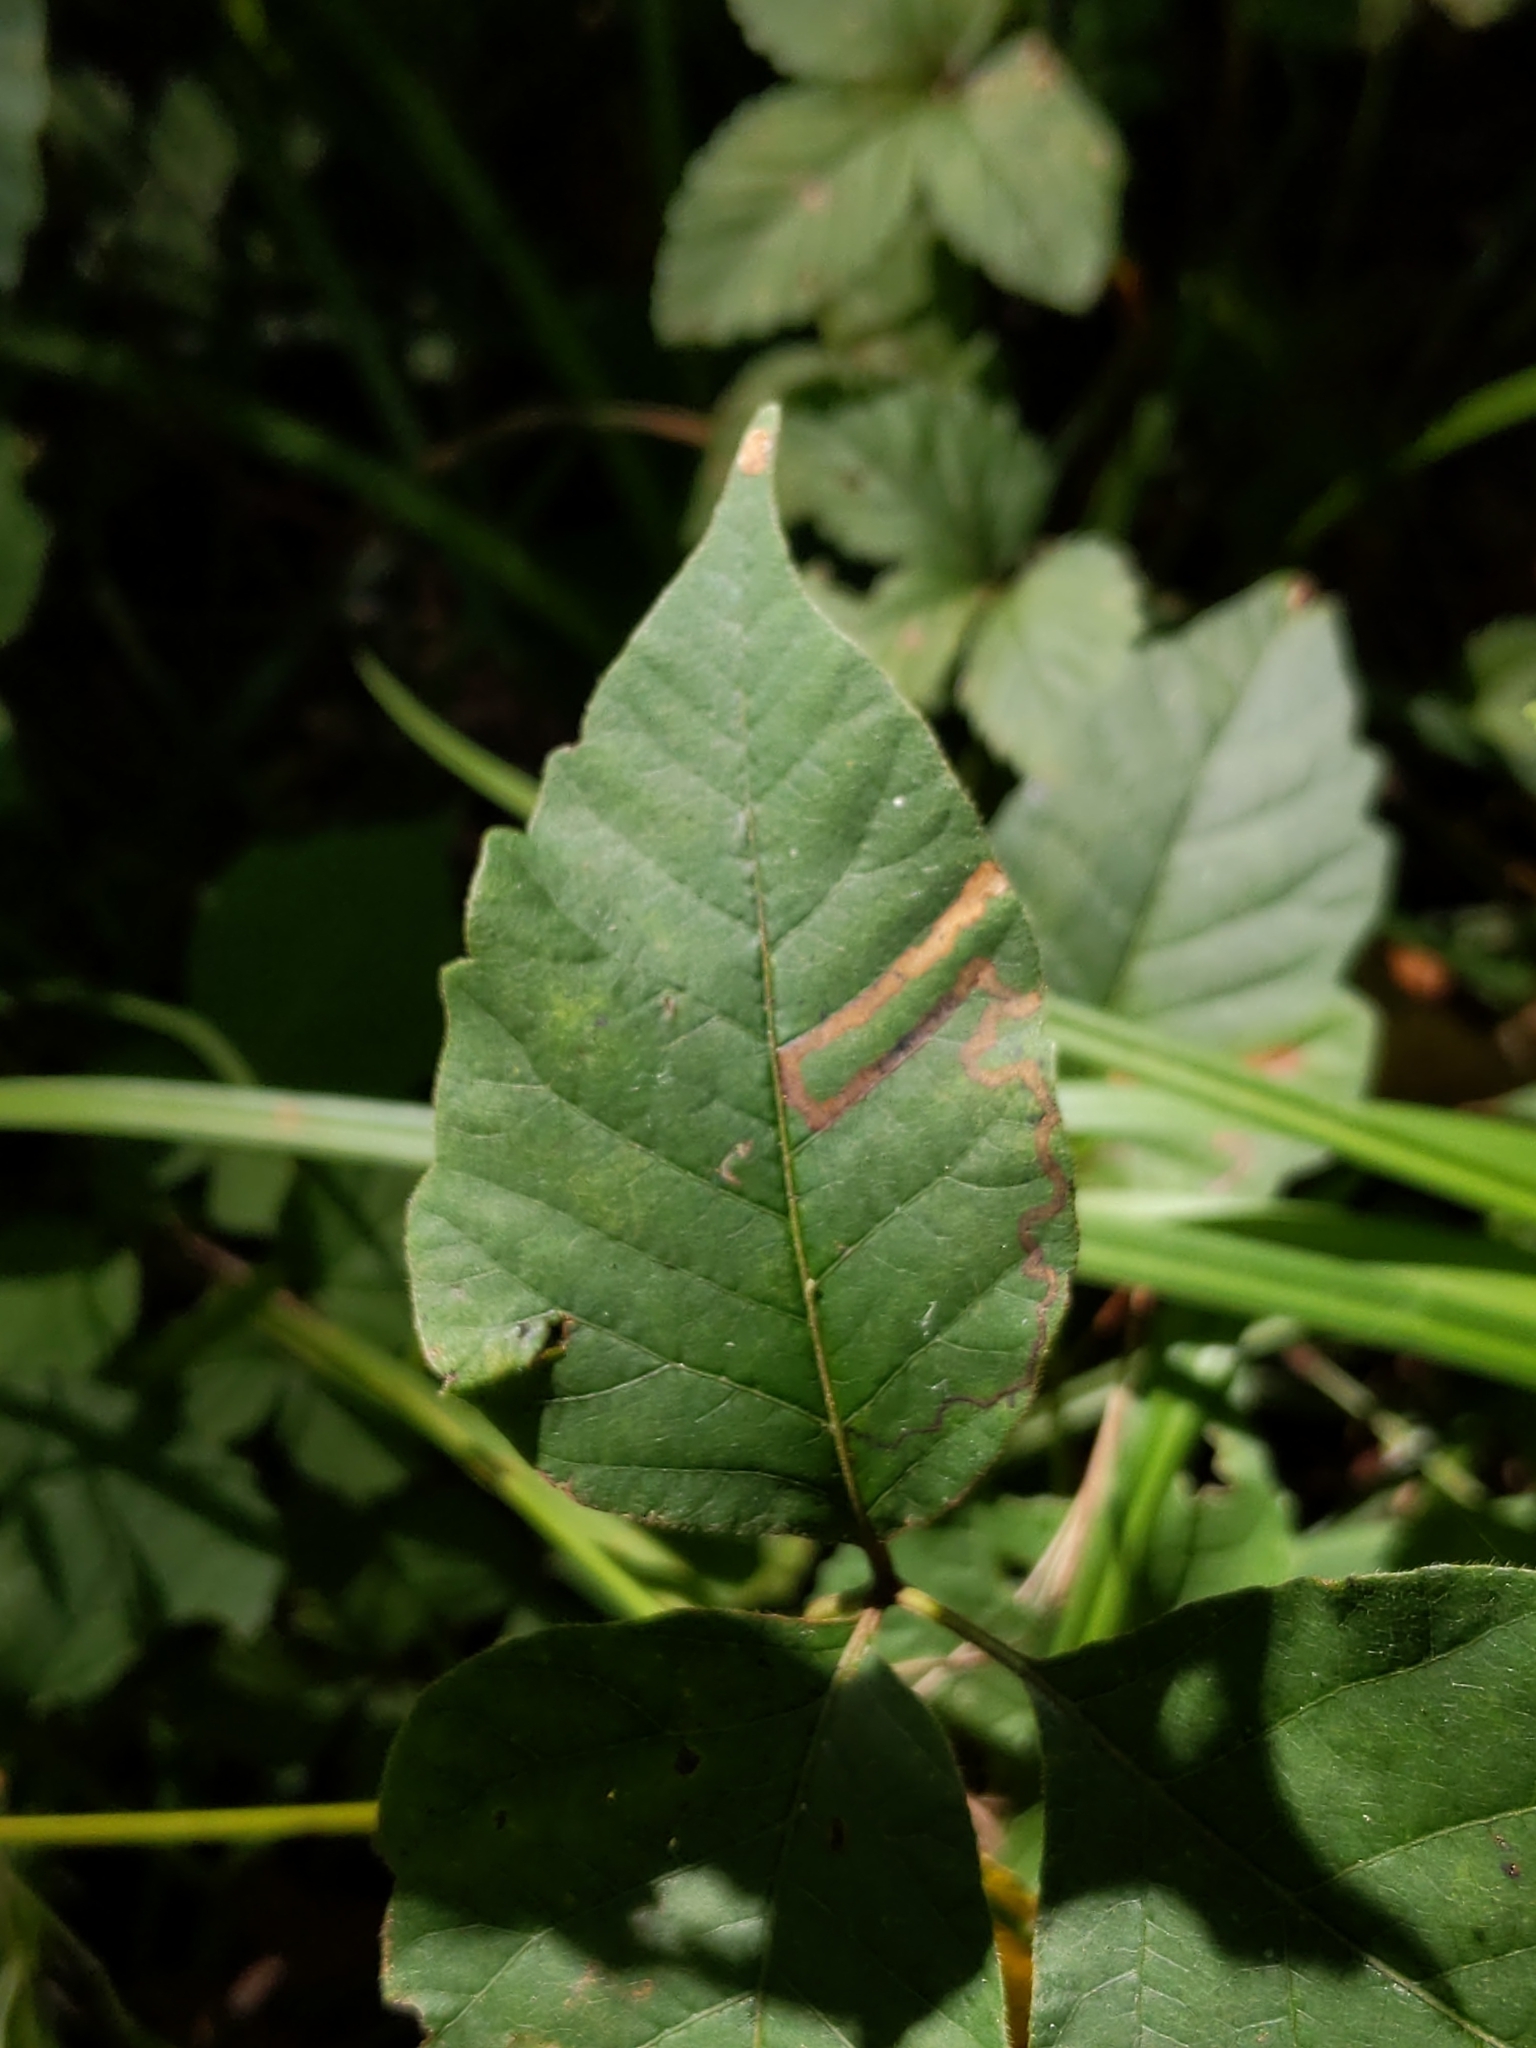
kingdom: Animalia
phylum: Arthropoda
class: Insecta
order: Lepidoptera
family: Nepticulidae
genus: Stigmella
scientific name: Stigmella rhoifoliella
